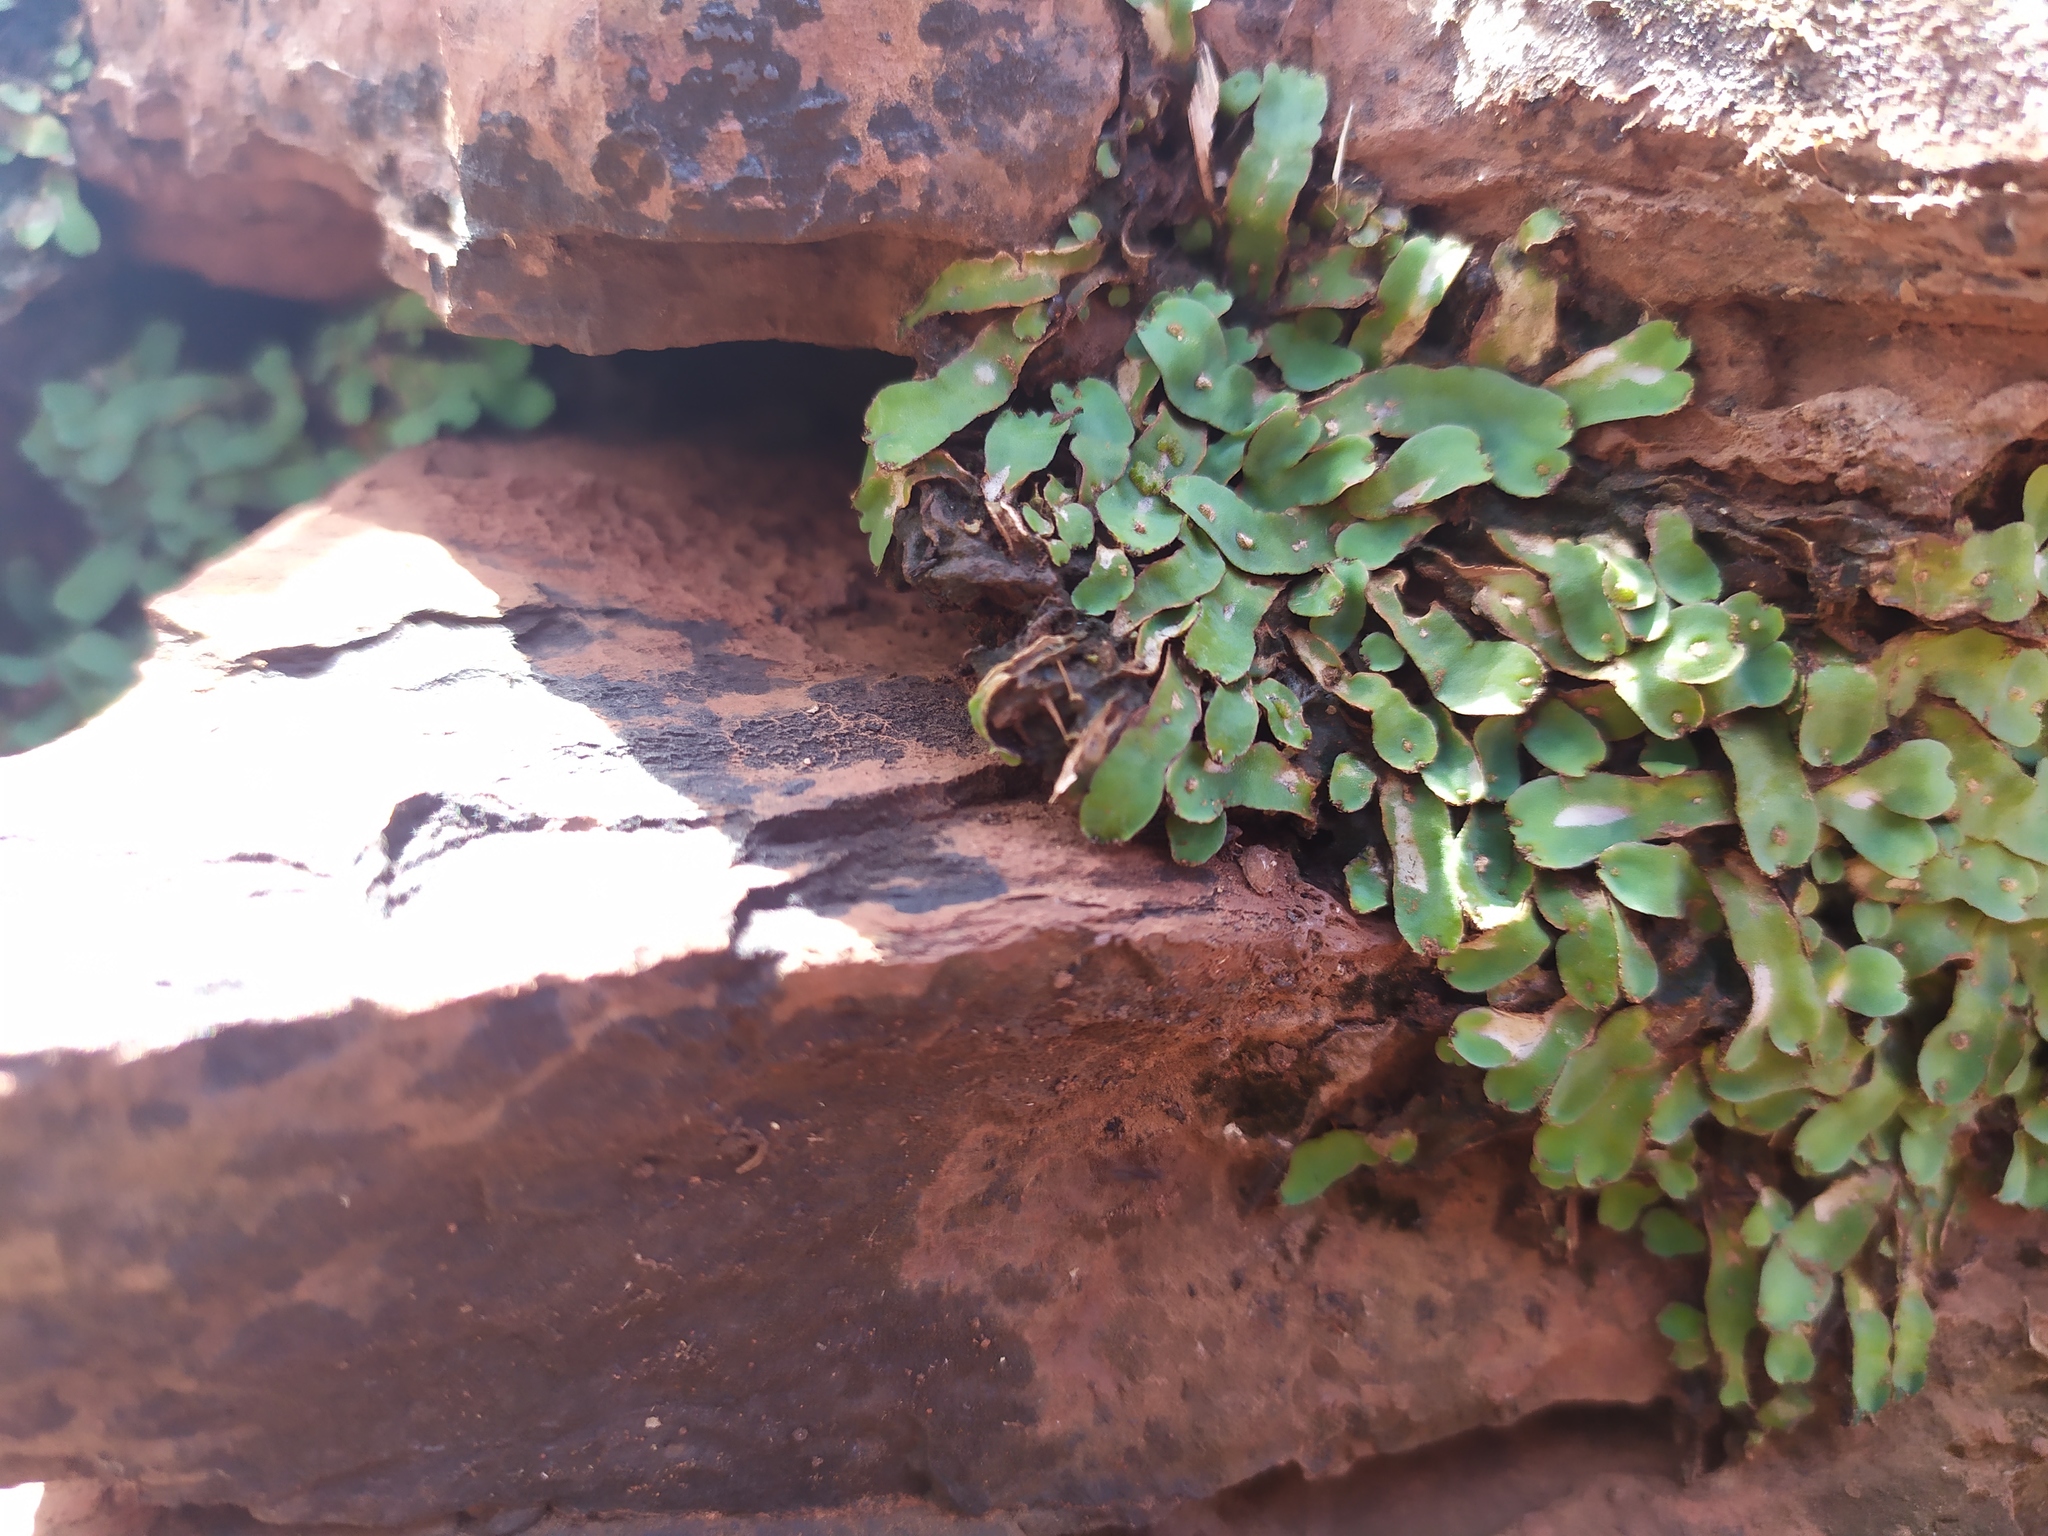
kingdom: Plantae
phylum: Marchantiophyta
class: Marchantiopsida
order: Marchantiales
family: Aytoniaceae
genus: Plagiochasma
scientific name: Plagiochasma rupestre
